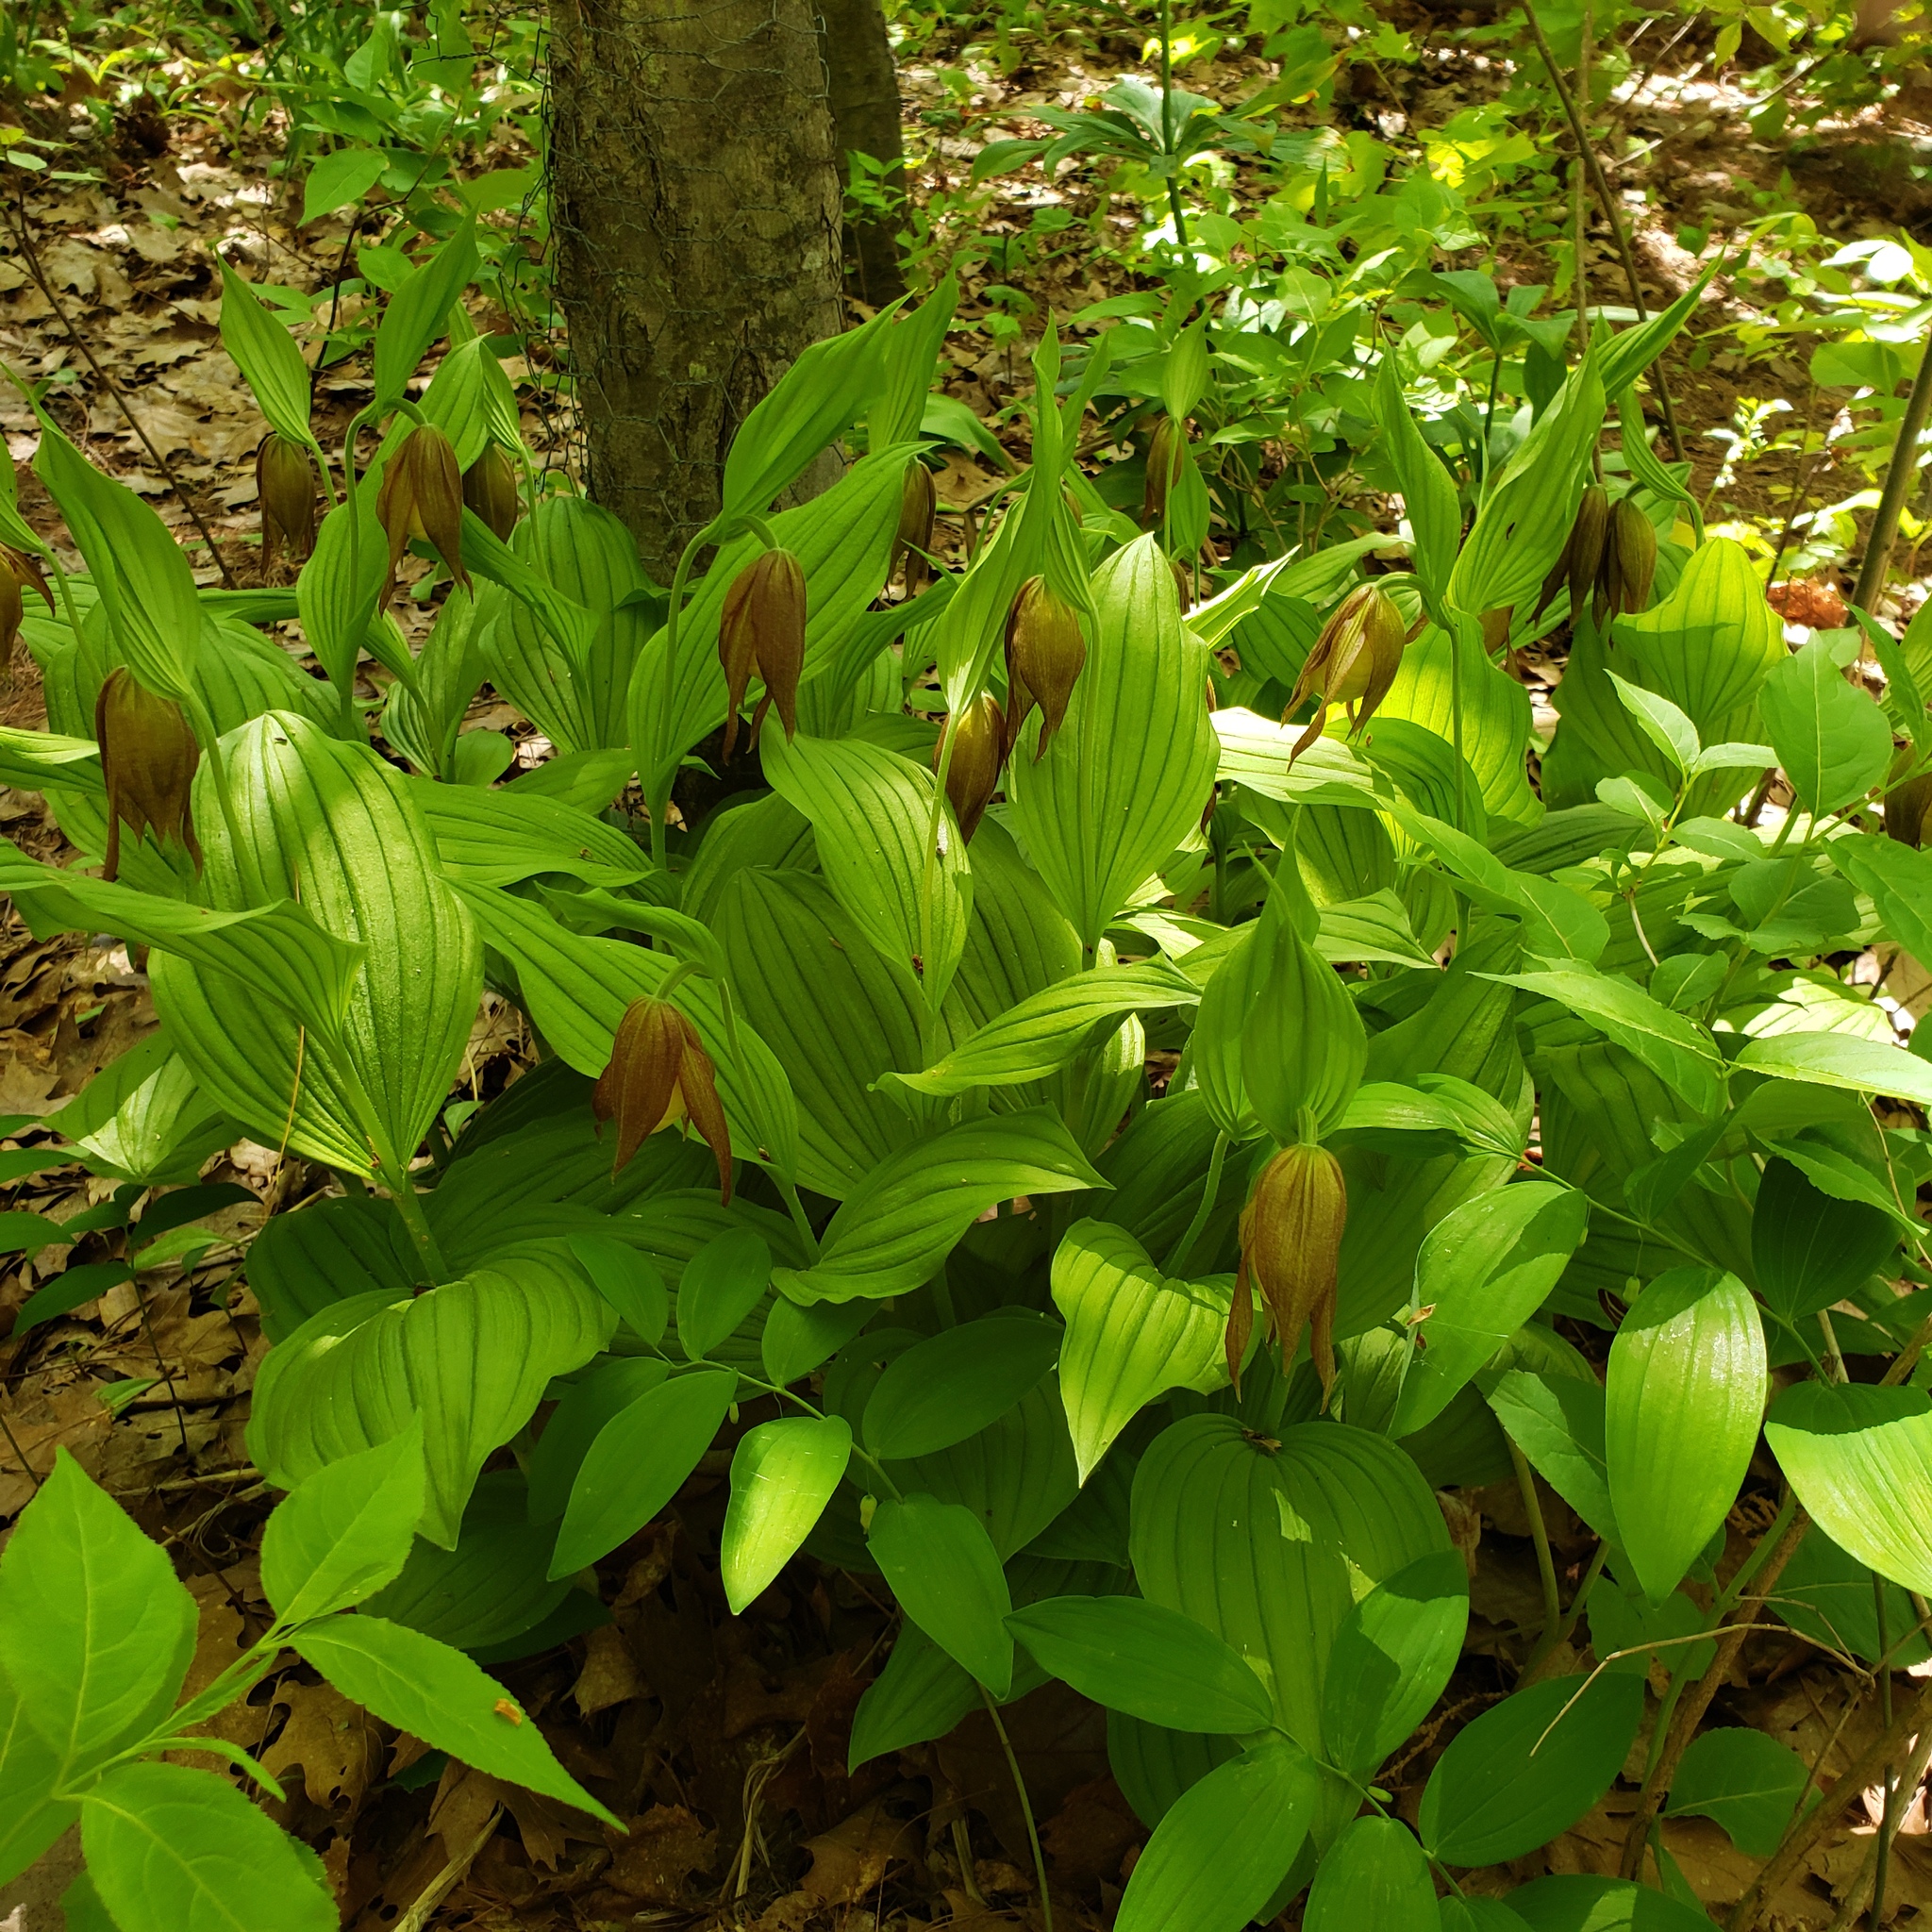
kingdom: Plantae
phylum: Tracheophyta
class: Liliopsida
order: Asparagales
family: Orchidaceae
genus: Cypripedium
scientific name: Cypripedium parviflorum
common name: American yellow lady's-slipper
